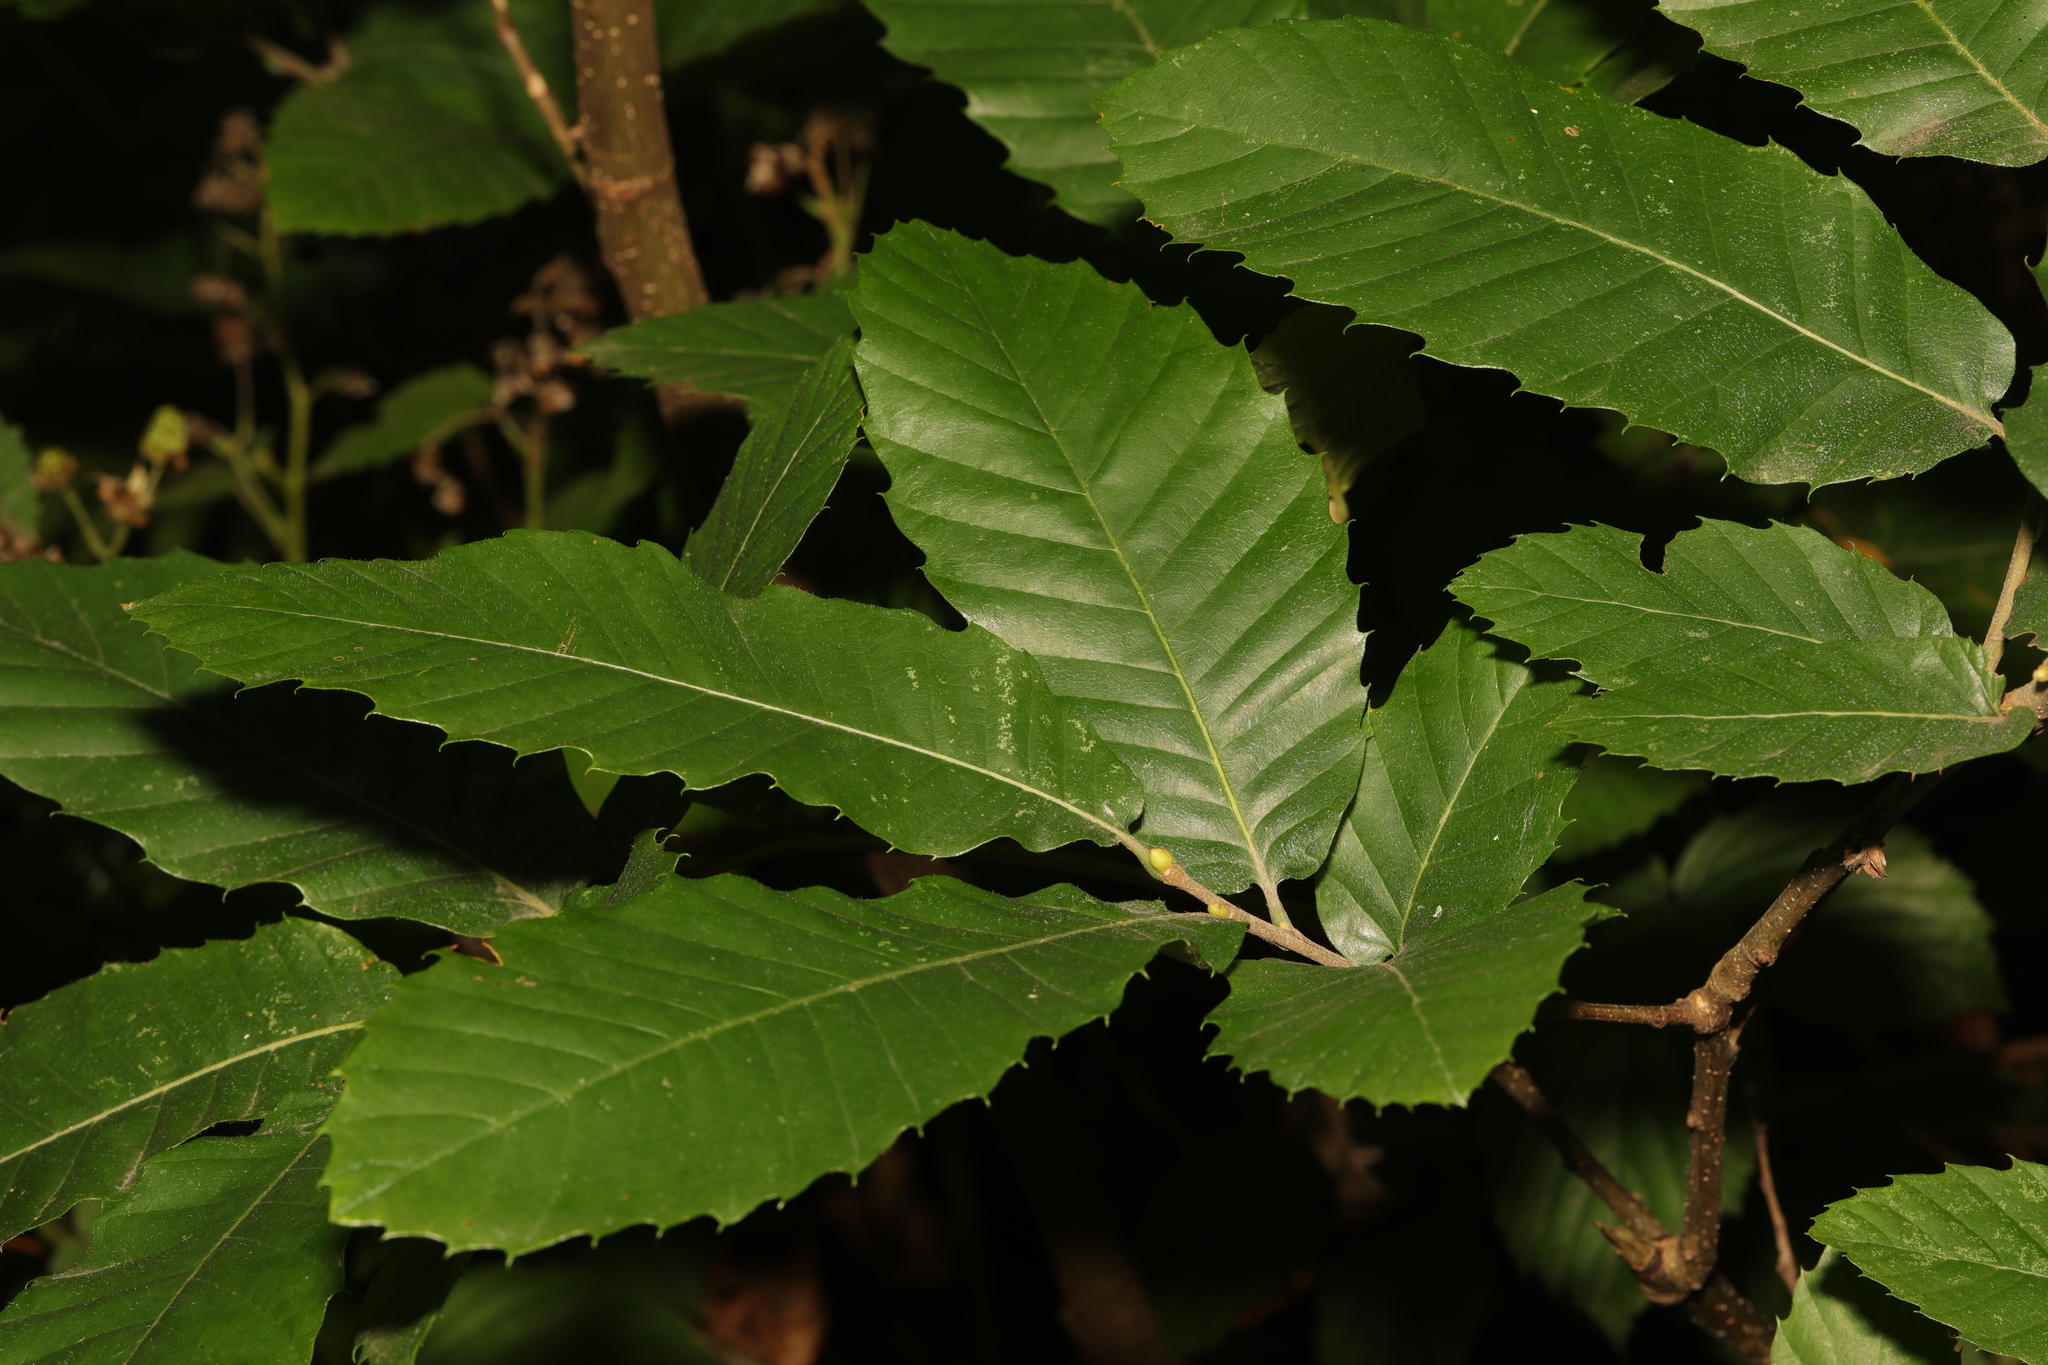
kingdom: Plantae
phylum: Tracheophyta
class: Magnoliopsida
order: Fagales
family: Fagaceae
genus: Castanea
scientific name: Castanea sativa
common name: Sweet chestnut
